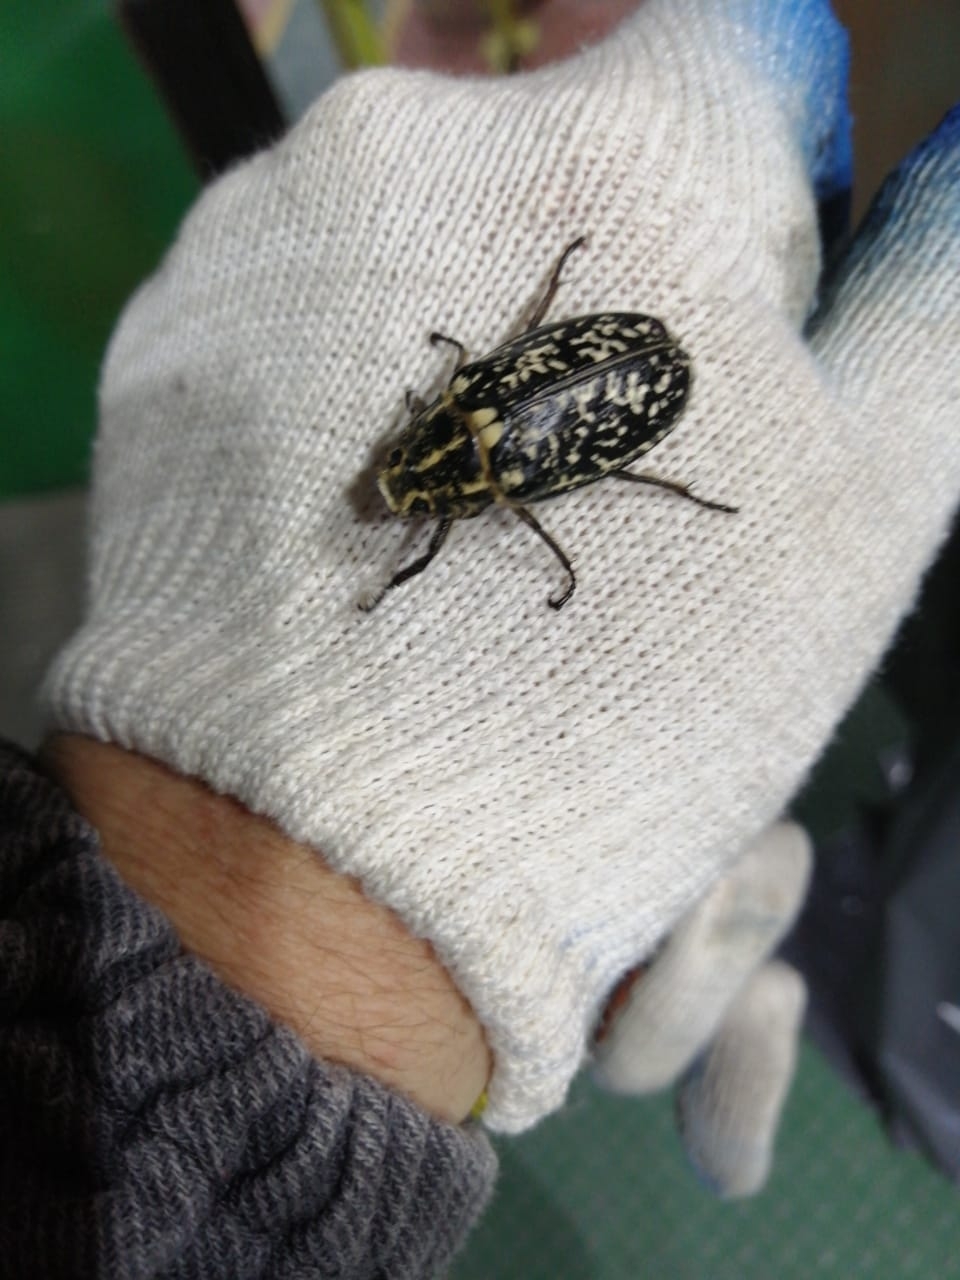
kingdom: Animalia
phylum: Arthropoda
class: Insecta
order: Coleoptera
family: Scarabaeidae
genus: Polyphylla
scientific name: Polyphylla fullo
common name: Pine chafer
